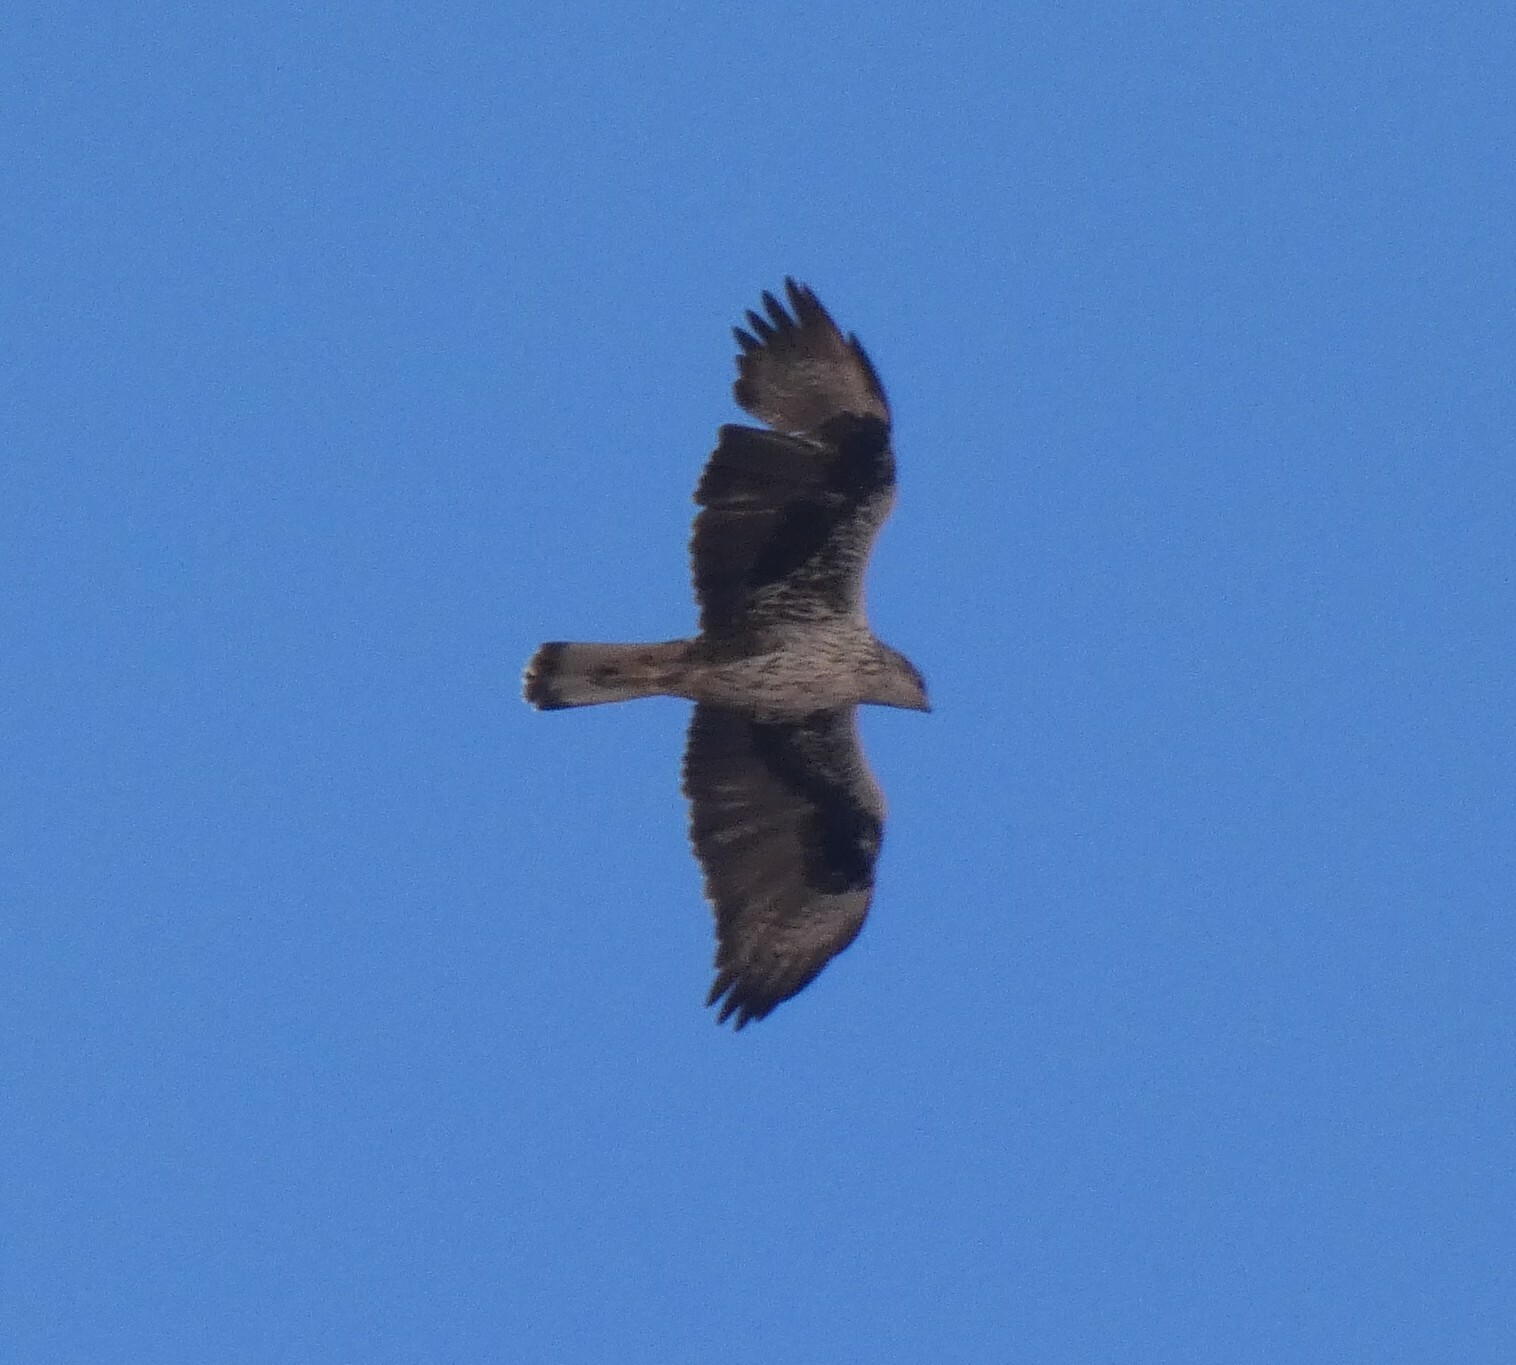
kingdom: Animalia
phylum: Chordata
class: Aves
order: Accipitriformes
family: Accipitridae
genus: Aquila
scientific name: Aquila fasciata
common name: Bonelli's eagle
